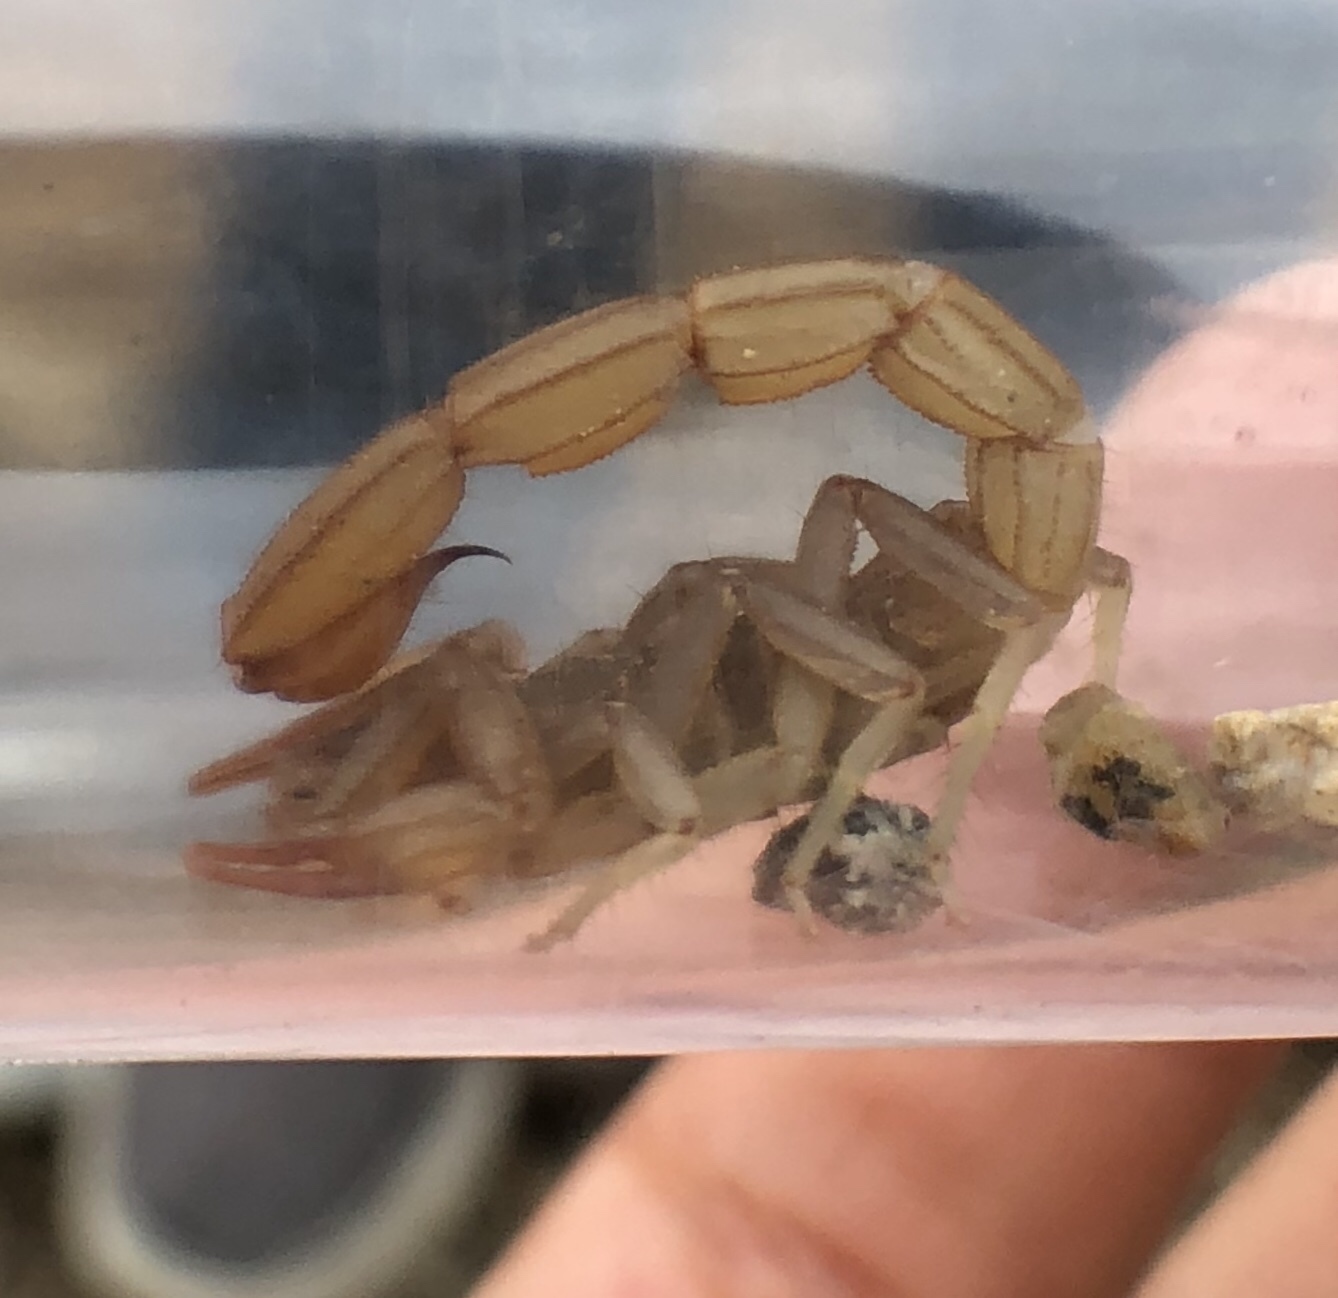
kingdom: Animalia
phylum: Arthropoda
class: Arachnida
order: Scorpiones
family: Vaejovidae
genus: Paravaejovis
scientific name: Paravaejovis puritanus
